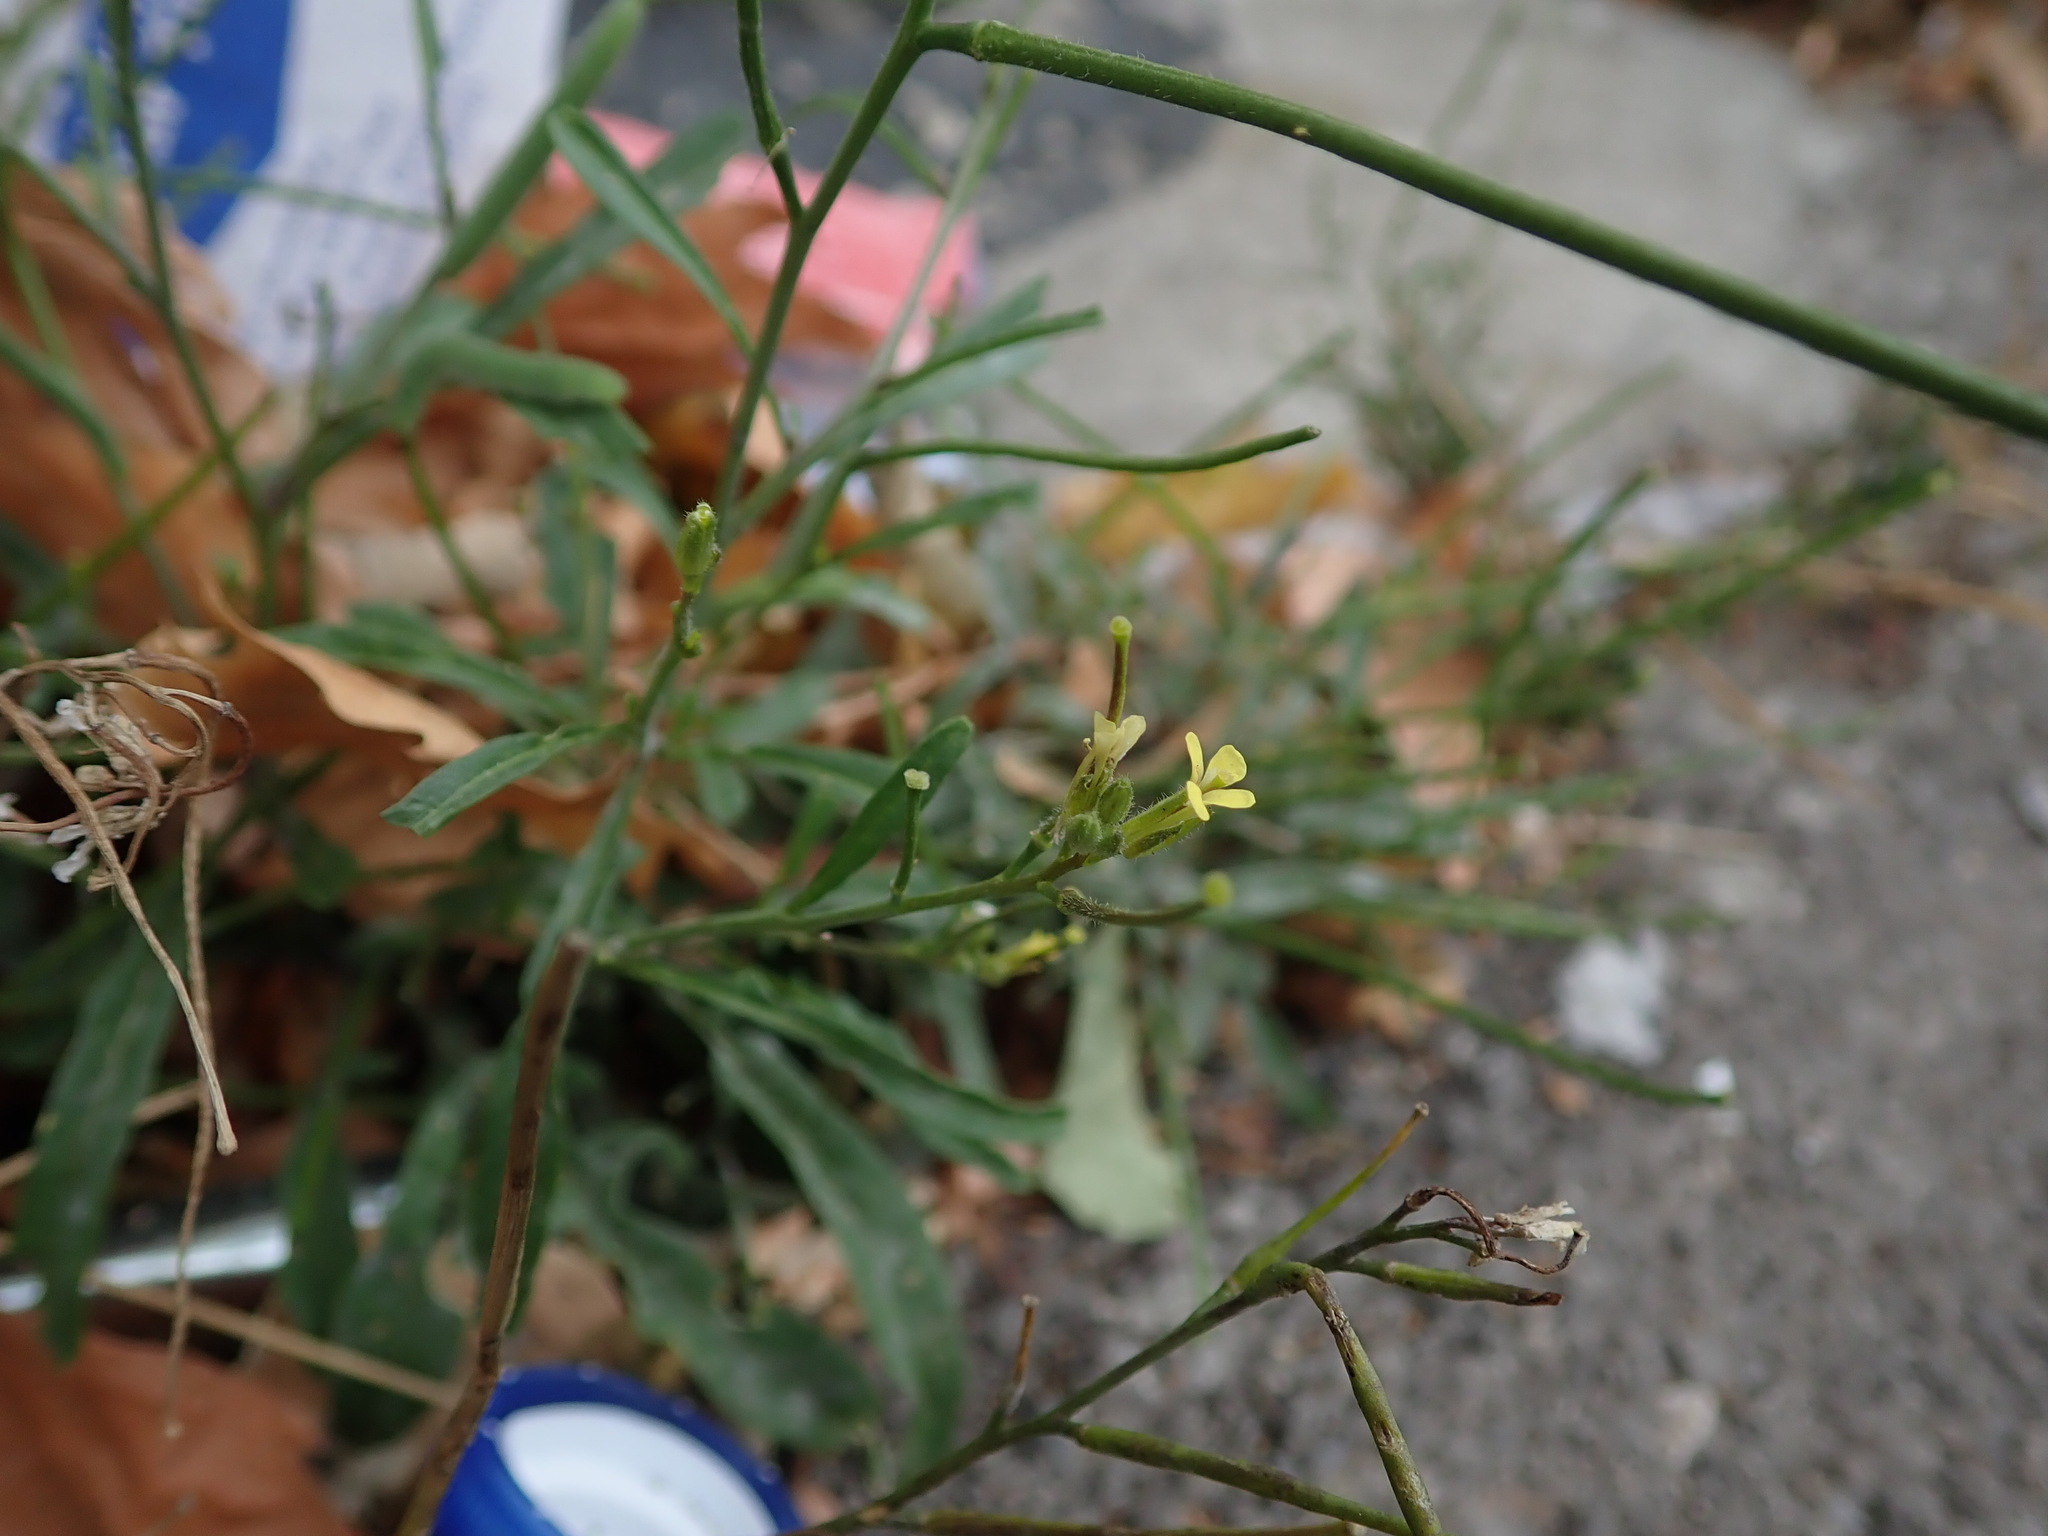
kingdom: Plantae
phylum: Tracheophyta
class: Magnoliopsida
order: Brassicales
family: Brassicaceae
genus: Sisymbrium
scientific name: Sisymbrium orientale
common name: Eastern rocket
